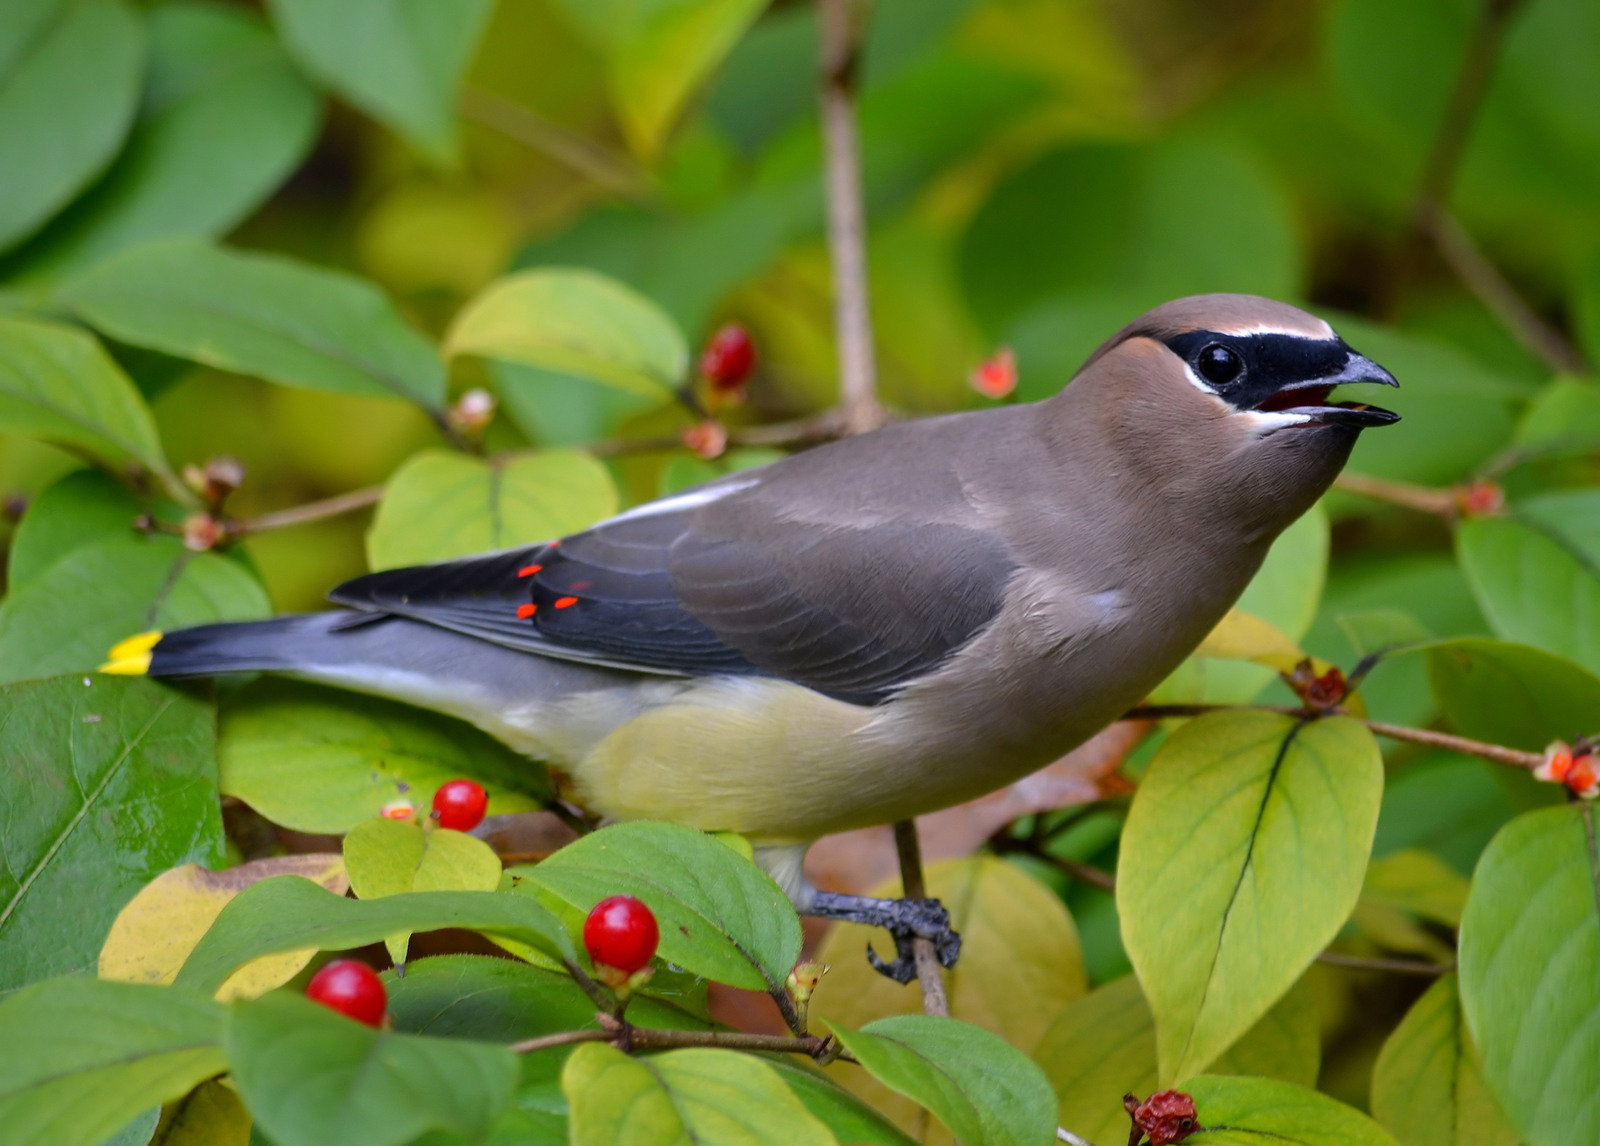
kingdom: Animalia
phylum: Chordata
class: Aves
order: Passeriformes
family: Bombycillidae
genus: Bombycilla
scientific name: Bombycilla cedrorum
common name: Cedar waxwing
